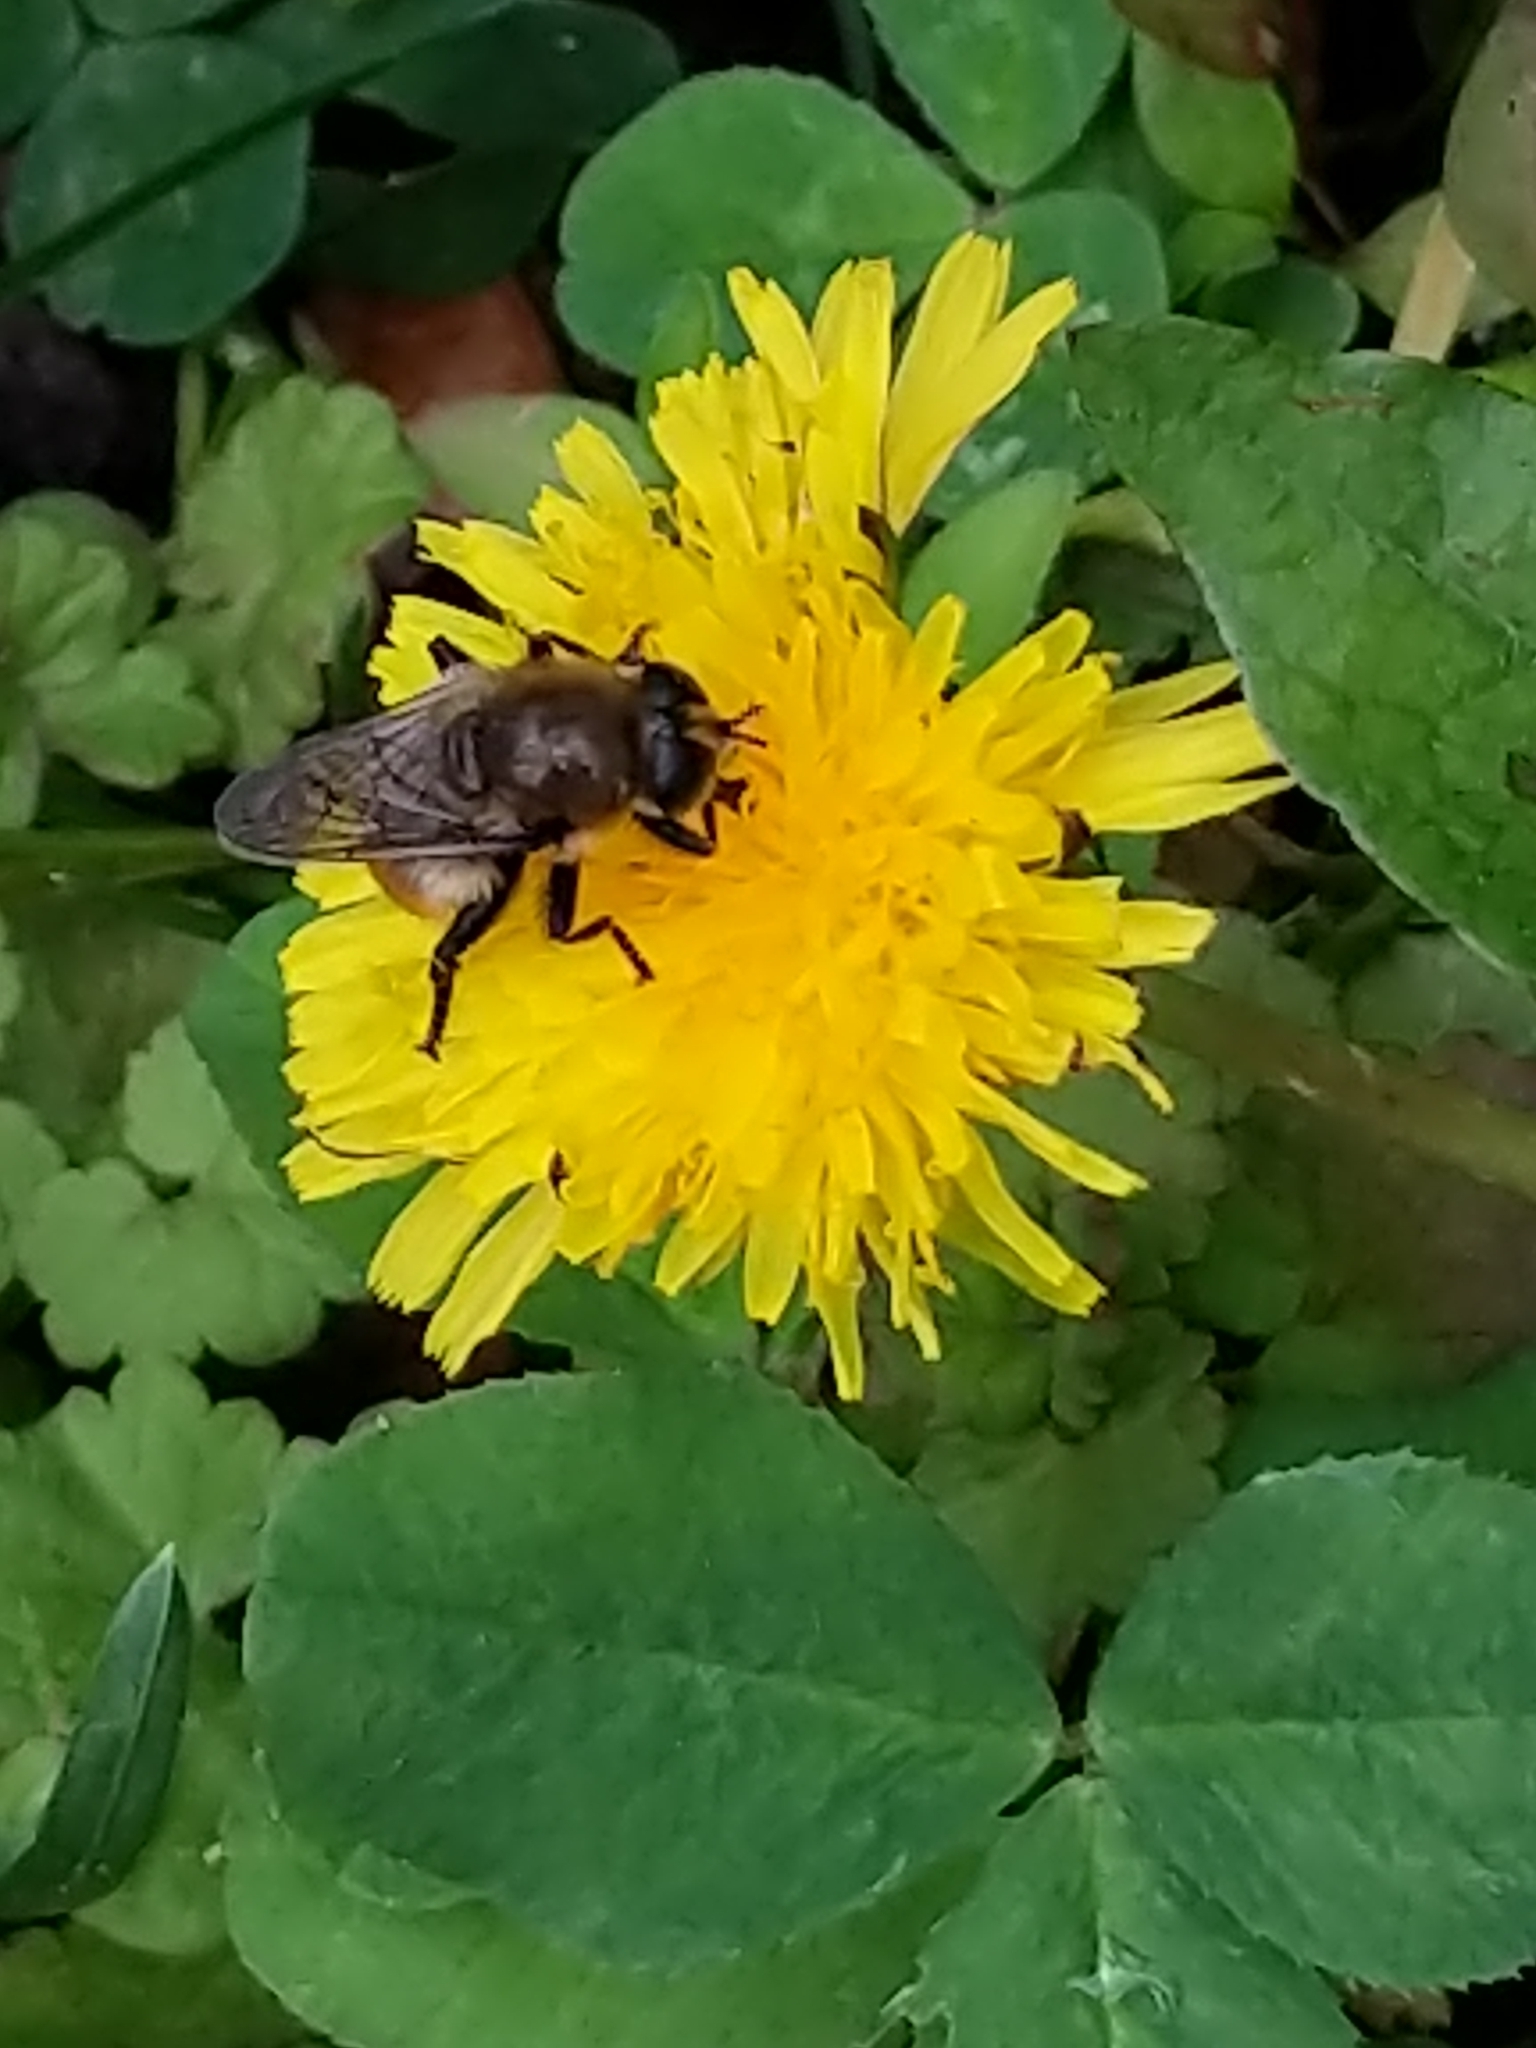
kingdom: Animalia
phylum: Arthropoda
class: Insecta
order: Diptera
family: Syrphidae
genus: Merodon
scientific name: Merodon equestris
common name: Greater bulb-fly
